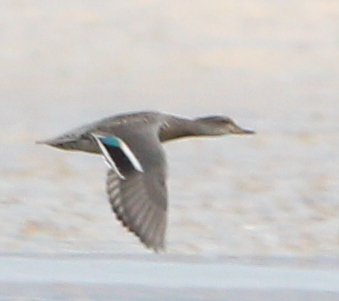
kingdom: Animalia
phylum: Chordata
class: Aves
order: Anseriformes
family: Anatidae
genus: Anas
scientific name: Anas crecca
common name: Eurasian teal
